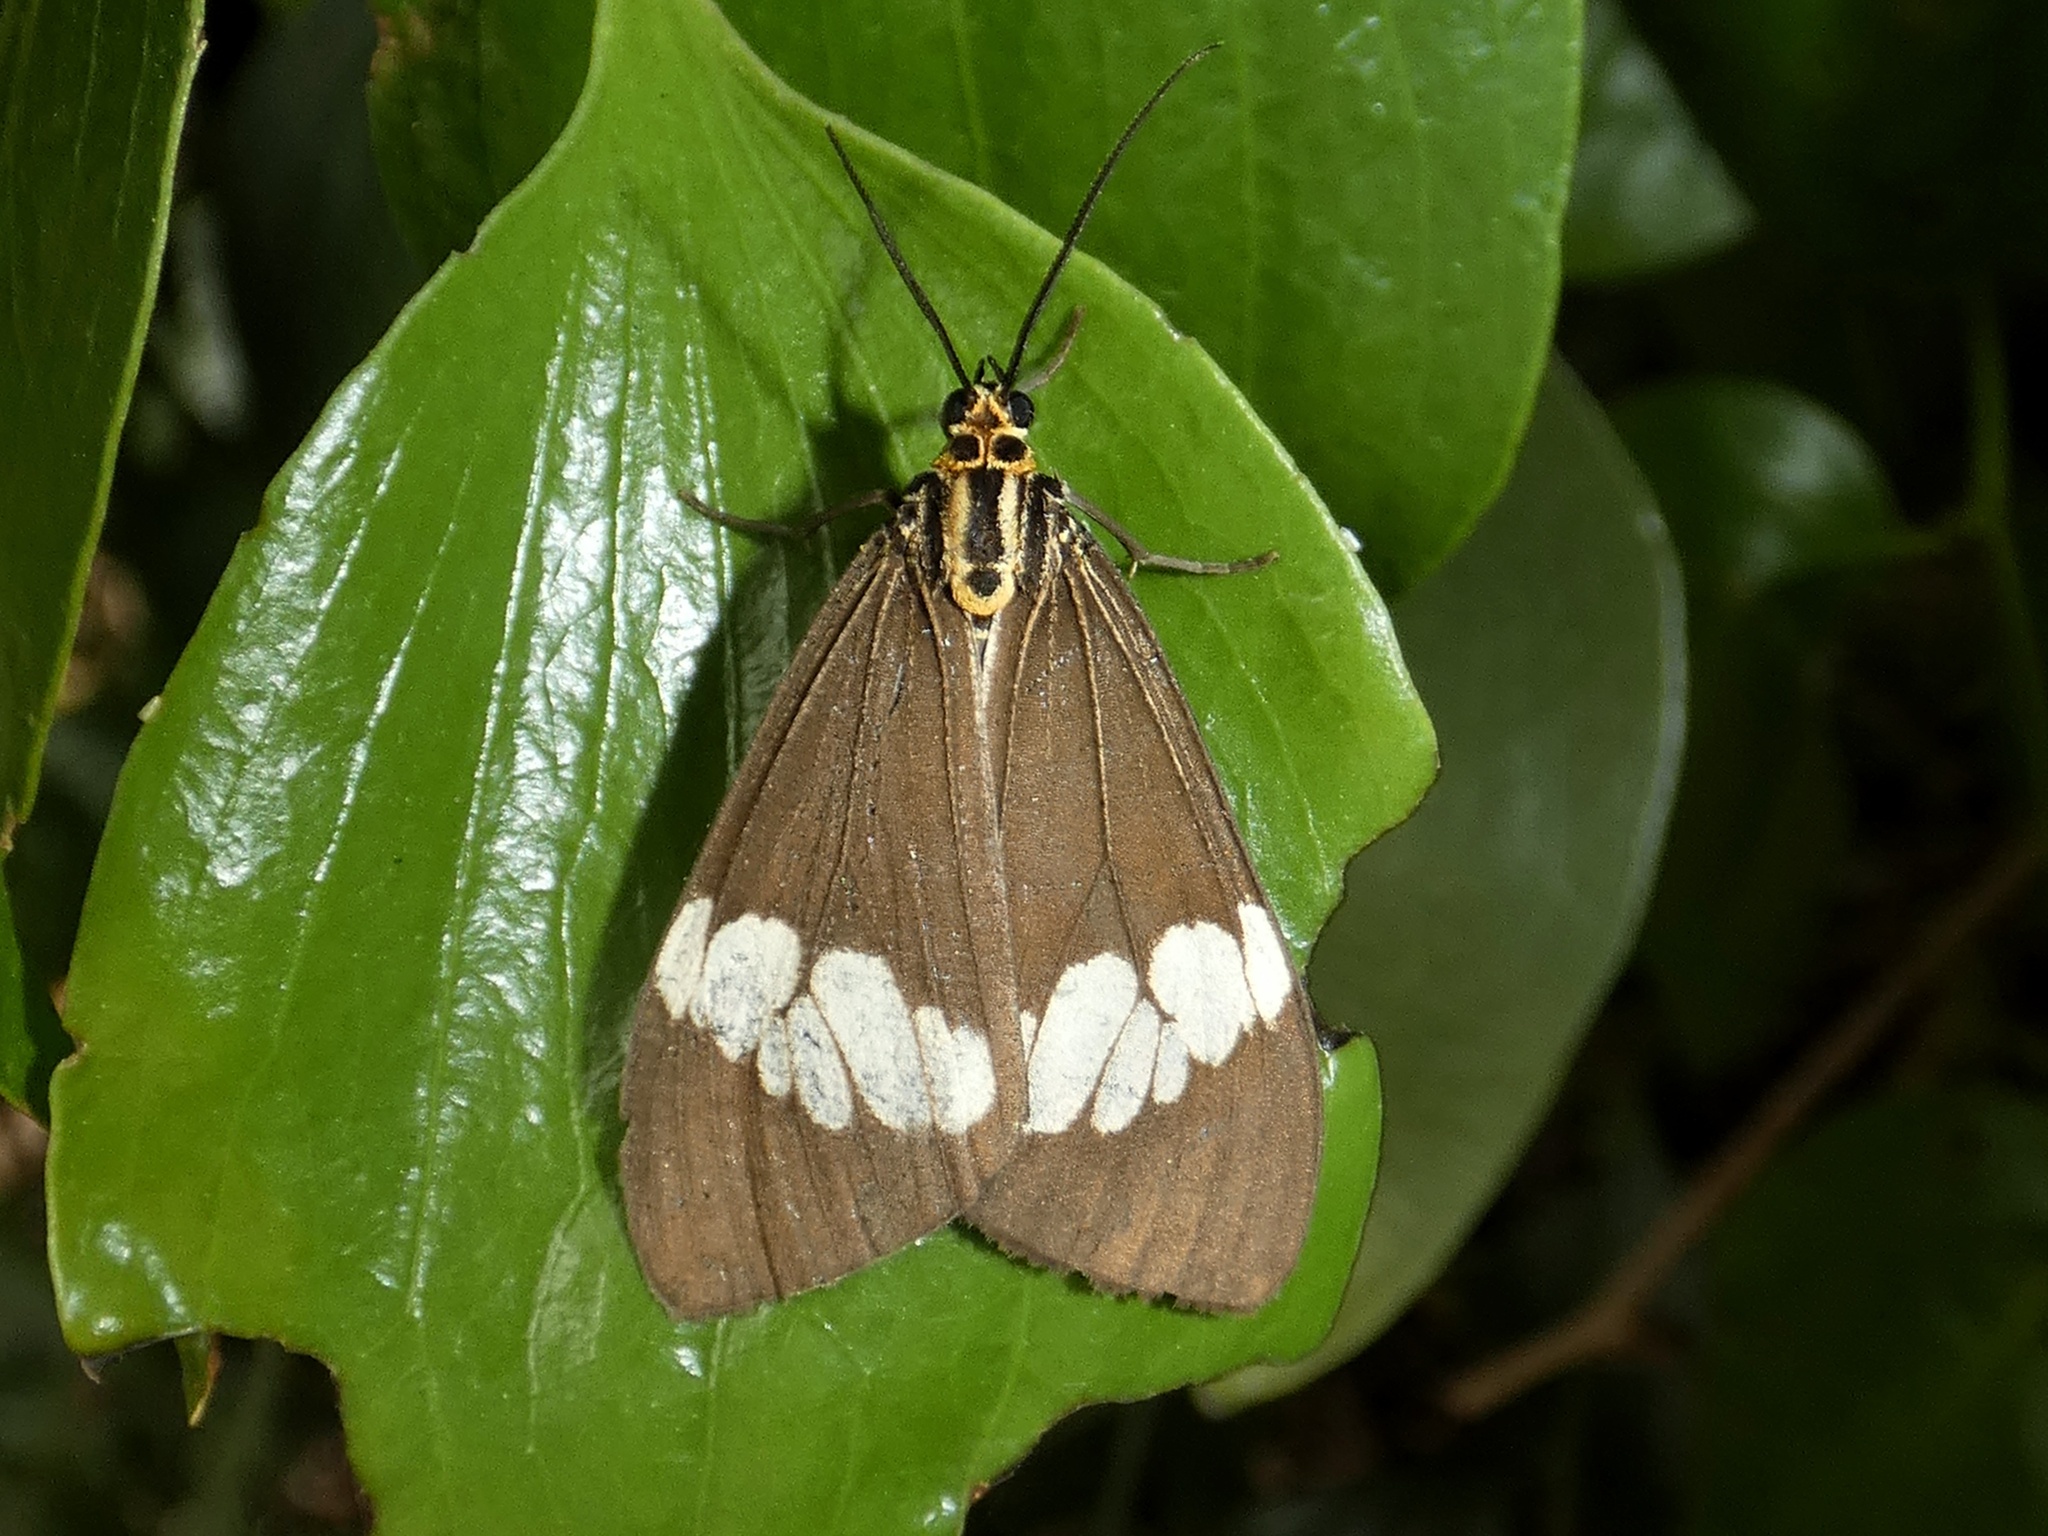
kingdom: Animalia
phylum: Arthropoda
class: Insecta
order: Lepidoptera
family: Erebidae
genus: Nyctemera
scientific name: Nyctemera baulus
